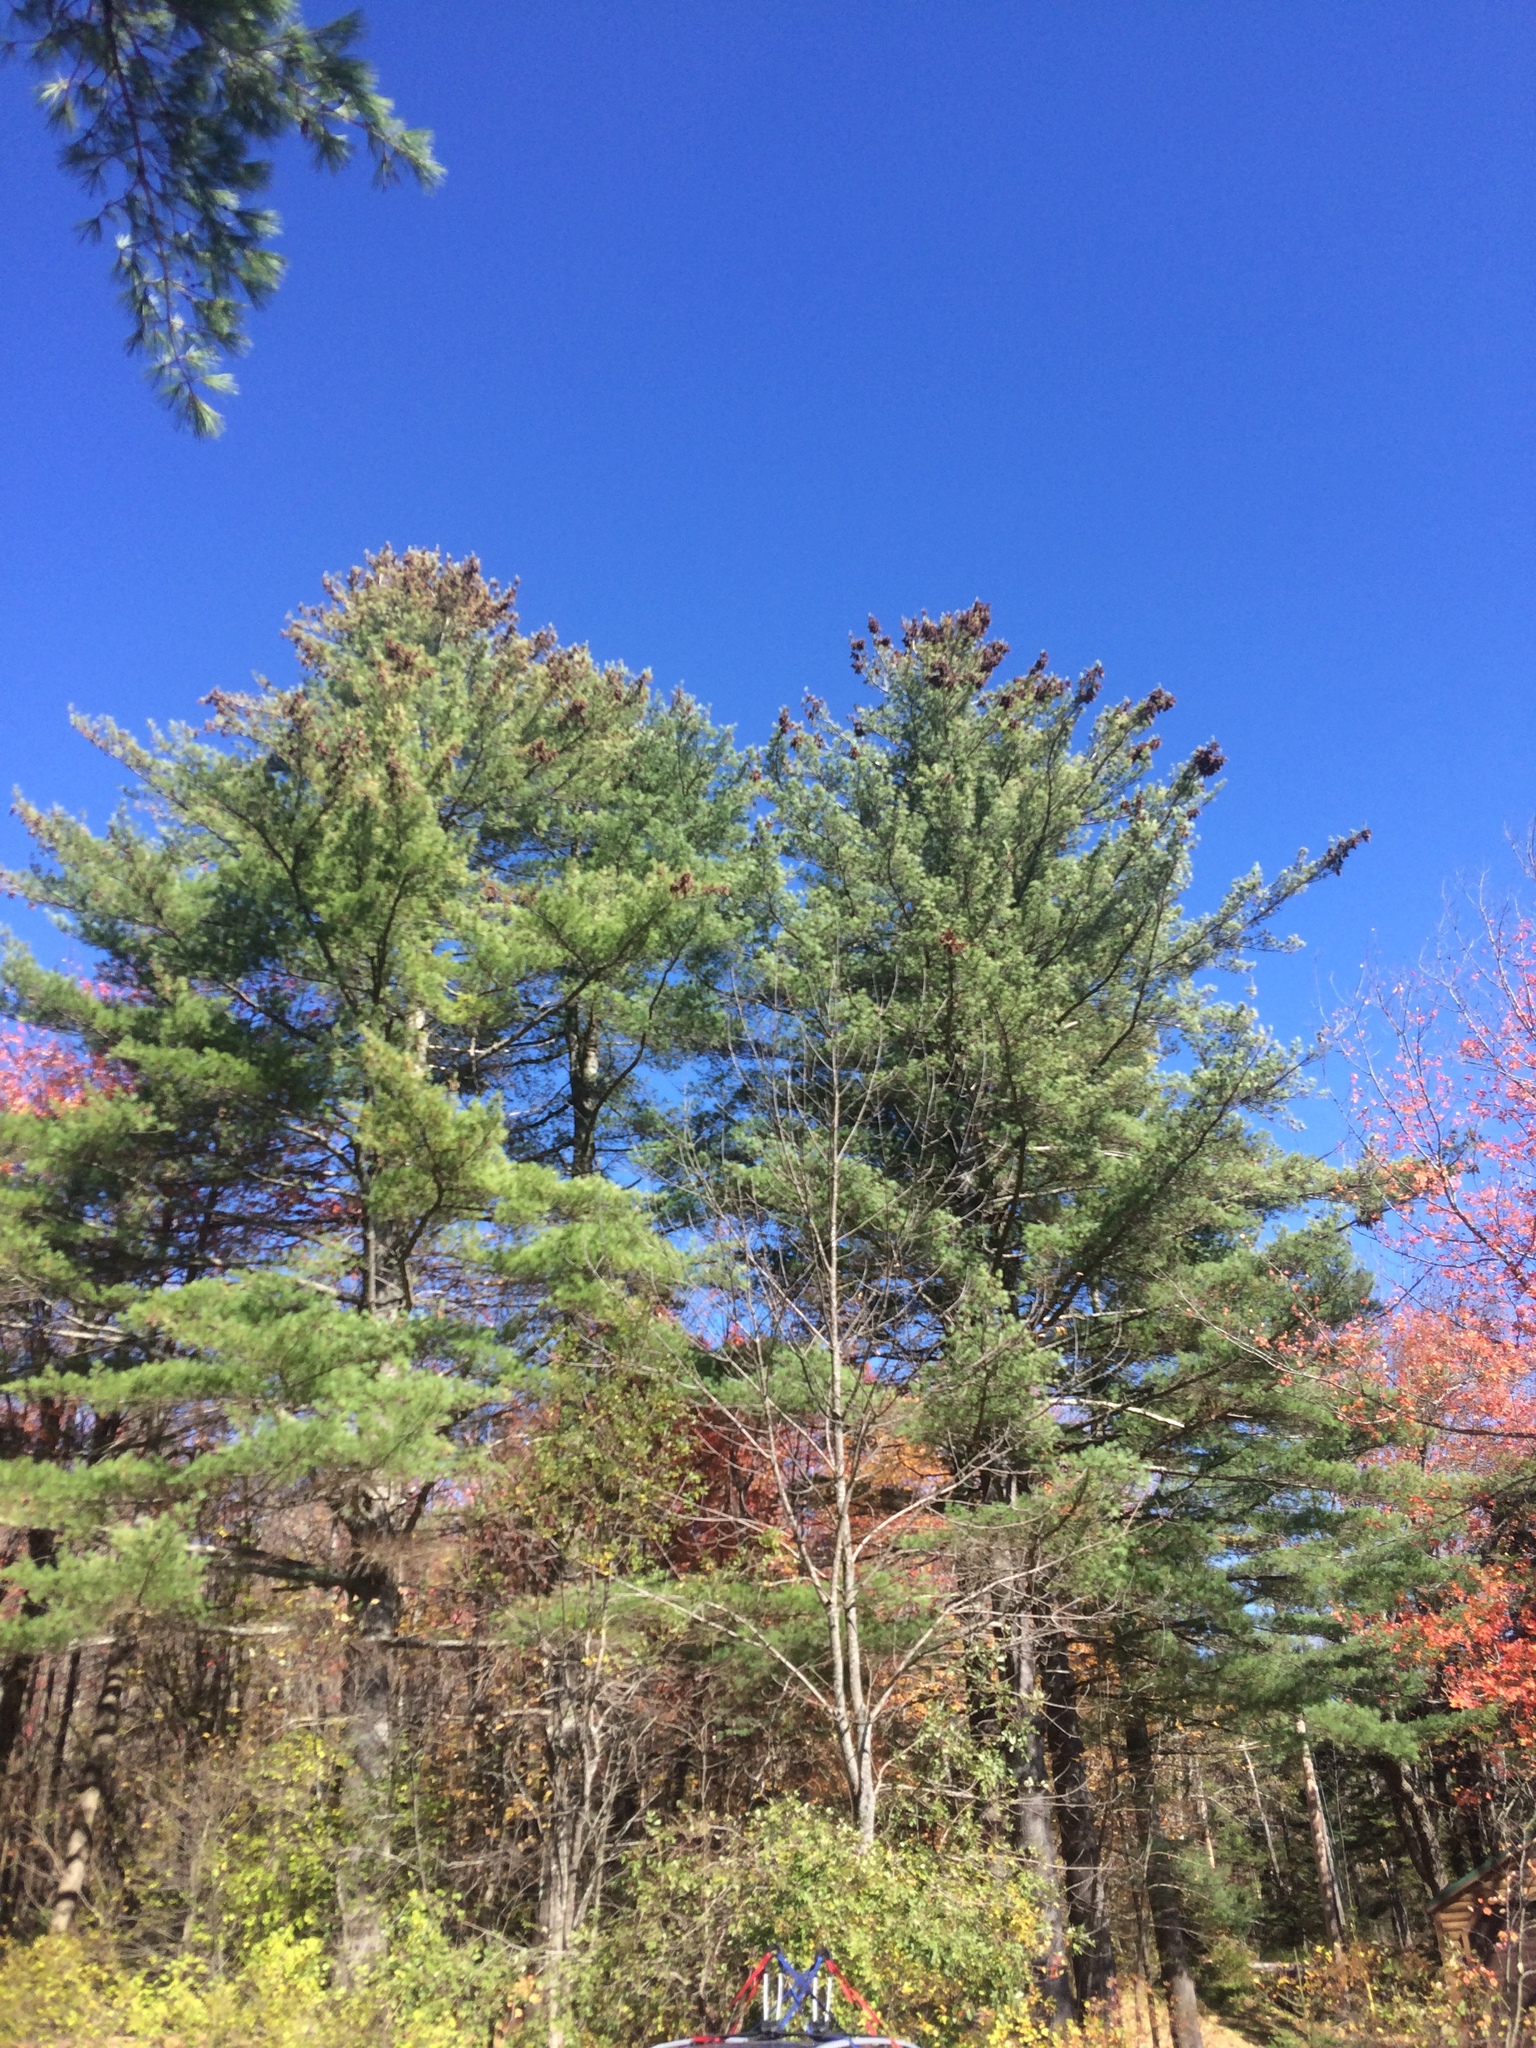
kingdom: Plantae
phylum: Tracheophyta
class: Pinopsida
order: Pinales
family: Pinaceae
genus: Pinus
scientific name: Pinus strobus
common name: Weymouth pine
